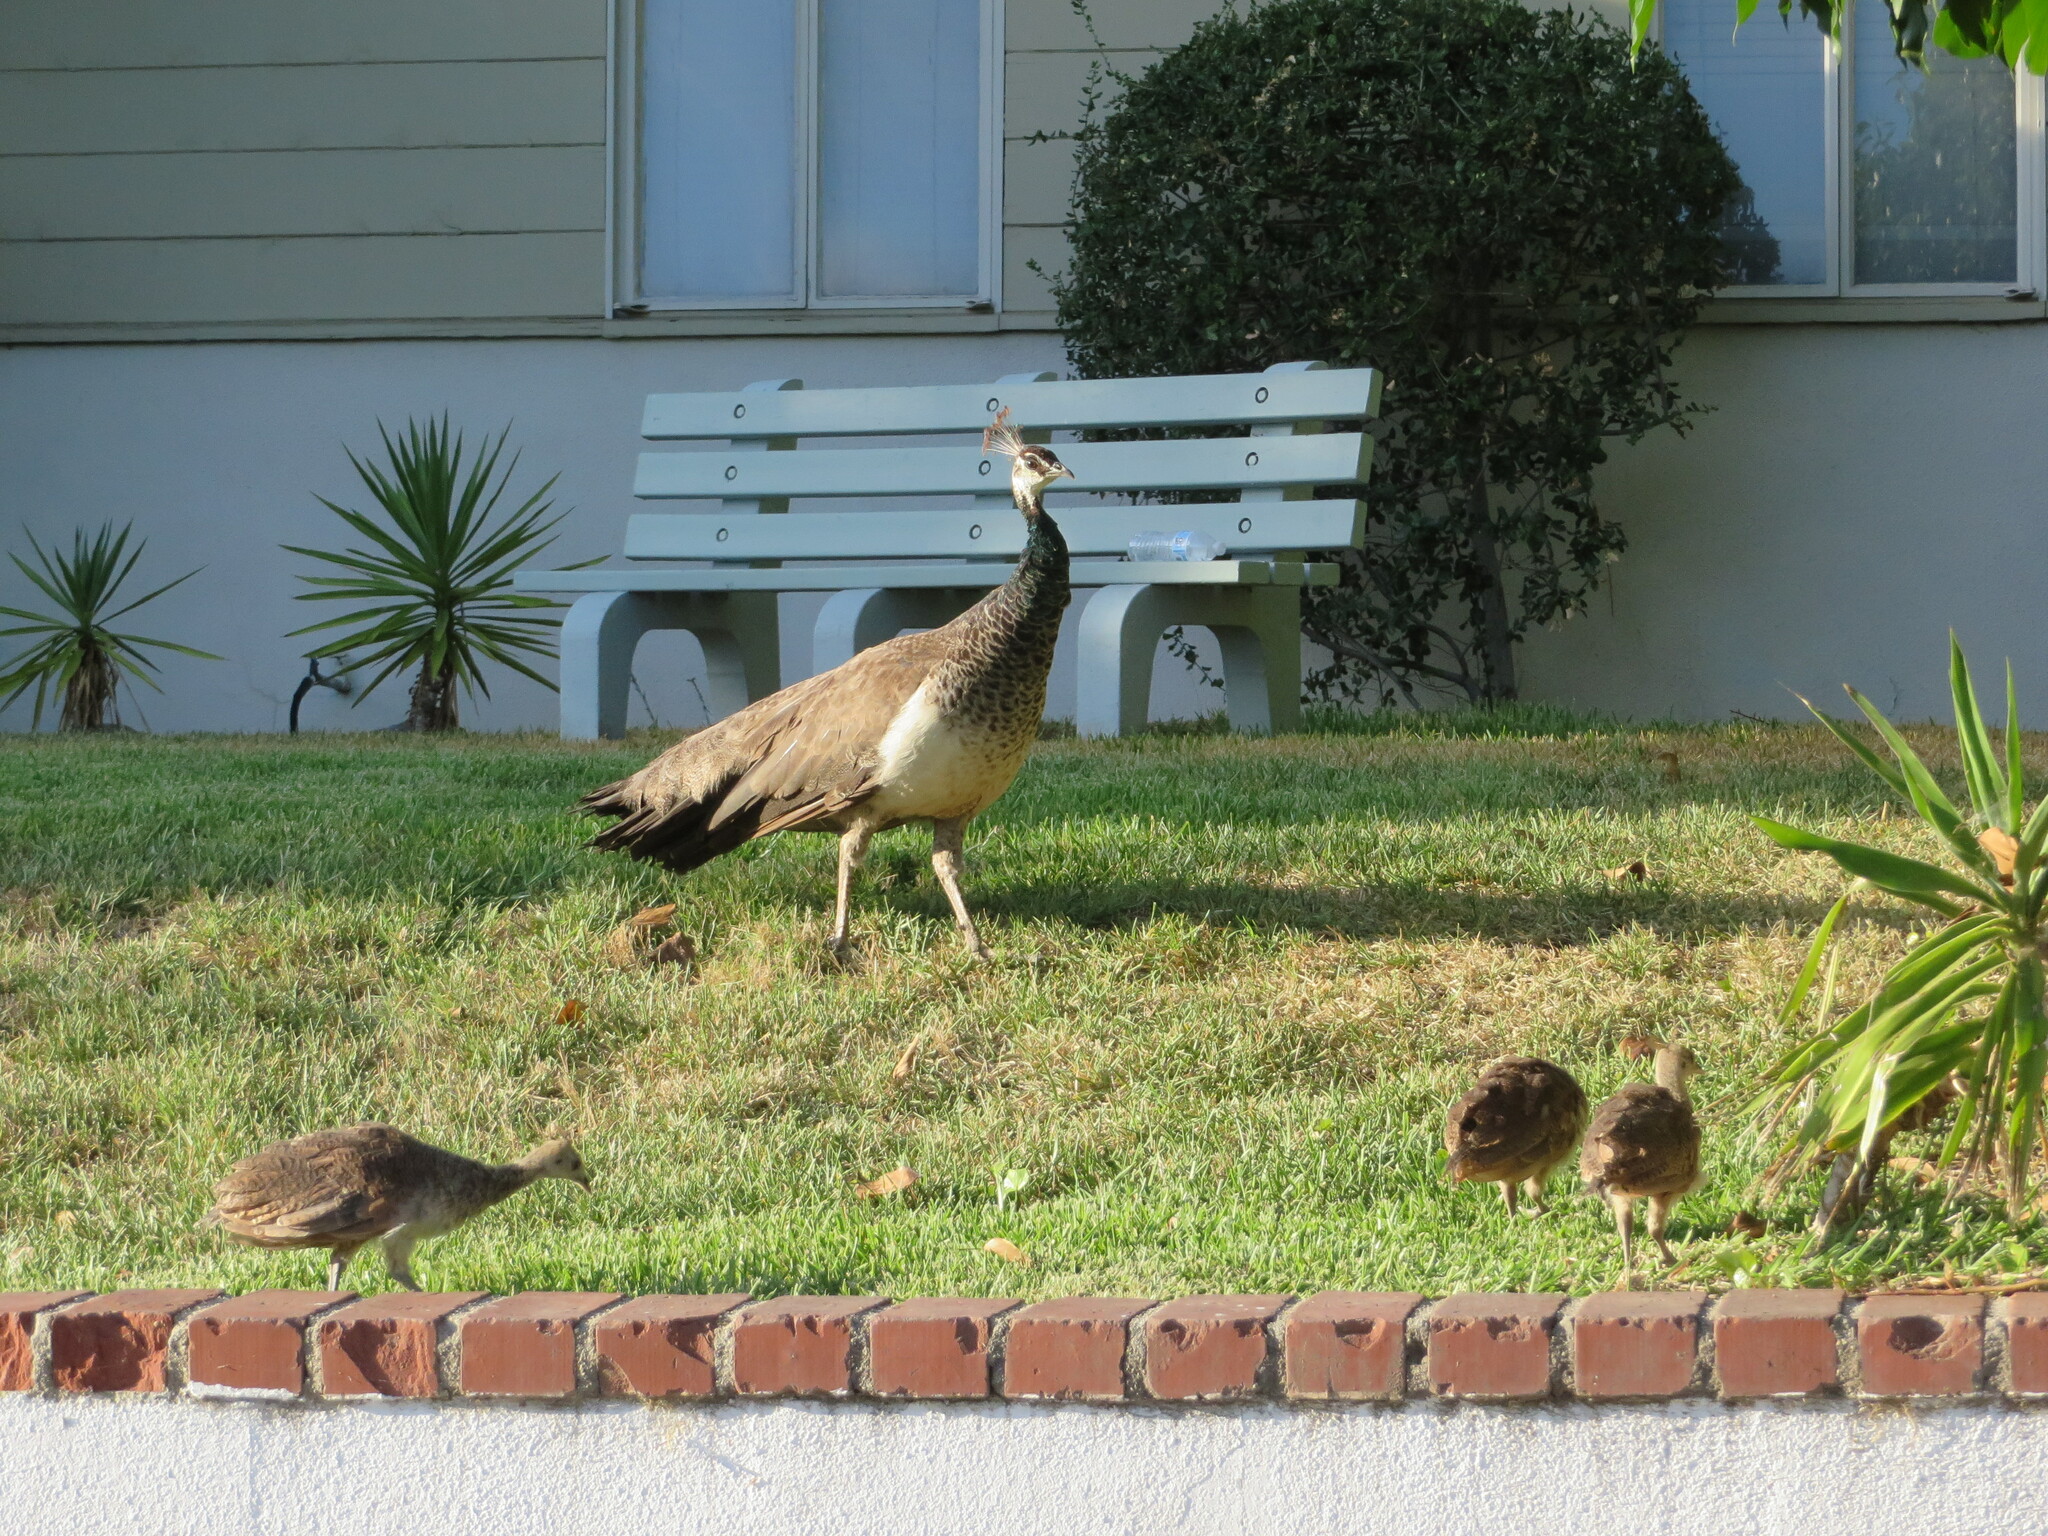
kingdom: Animalia
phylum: Chordata
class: Aves
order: Galliformes
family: Phasianidae
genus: Pavo
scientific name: Pavo cristatus
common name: Indian peafowl
